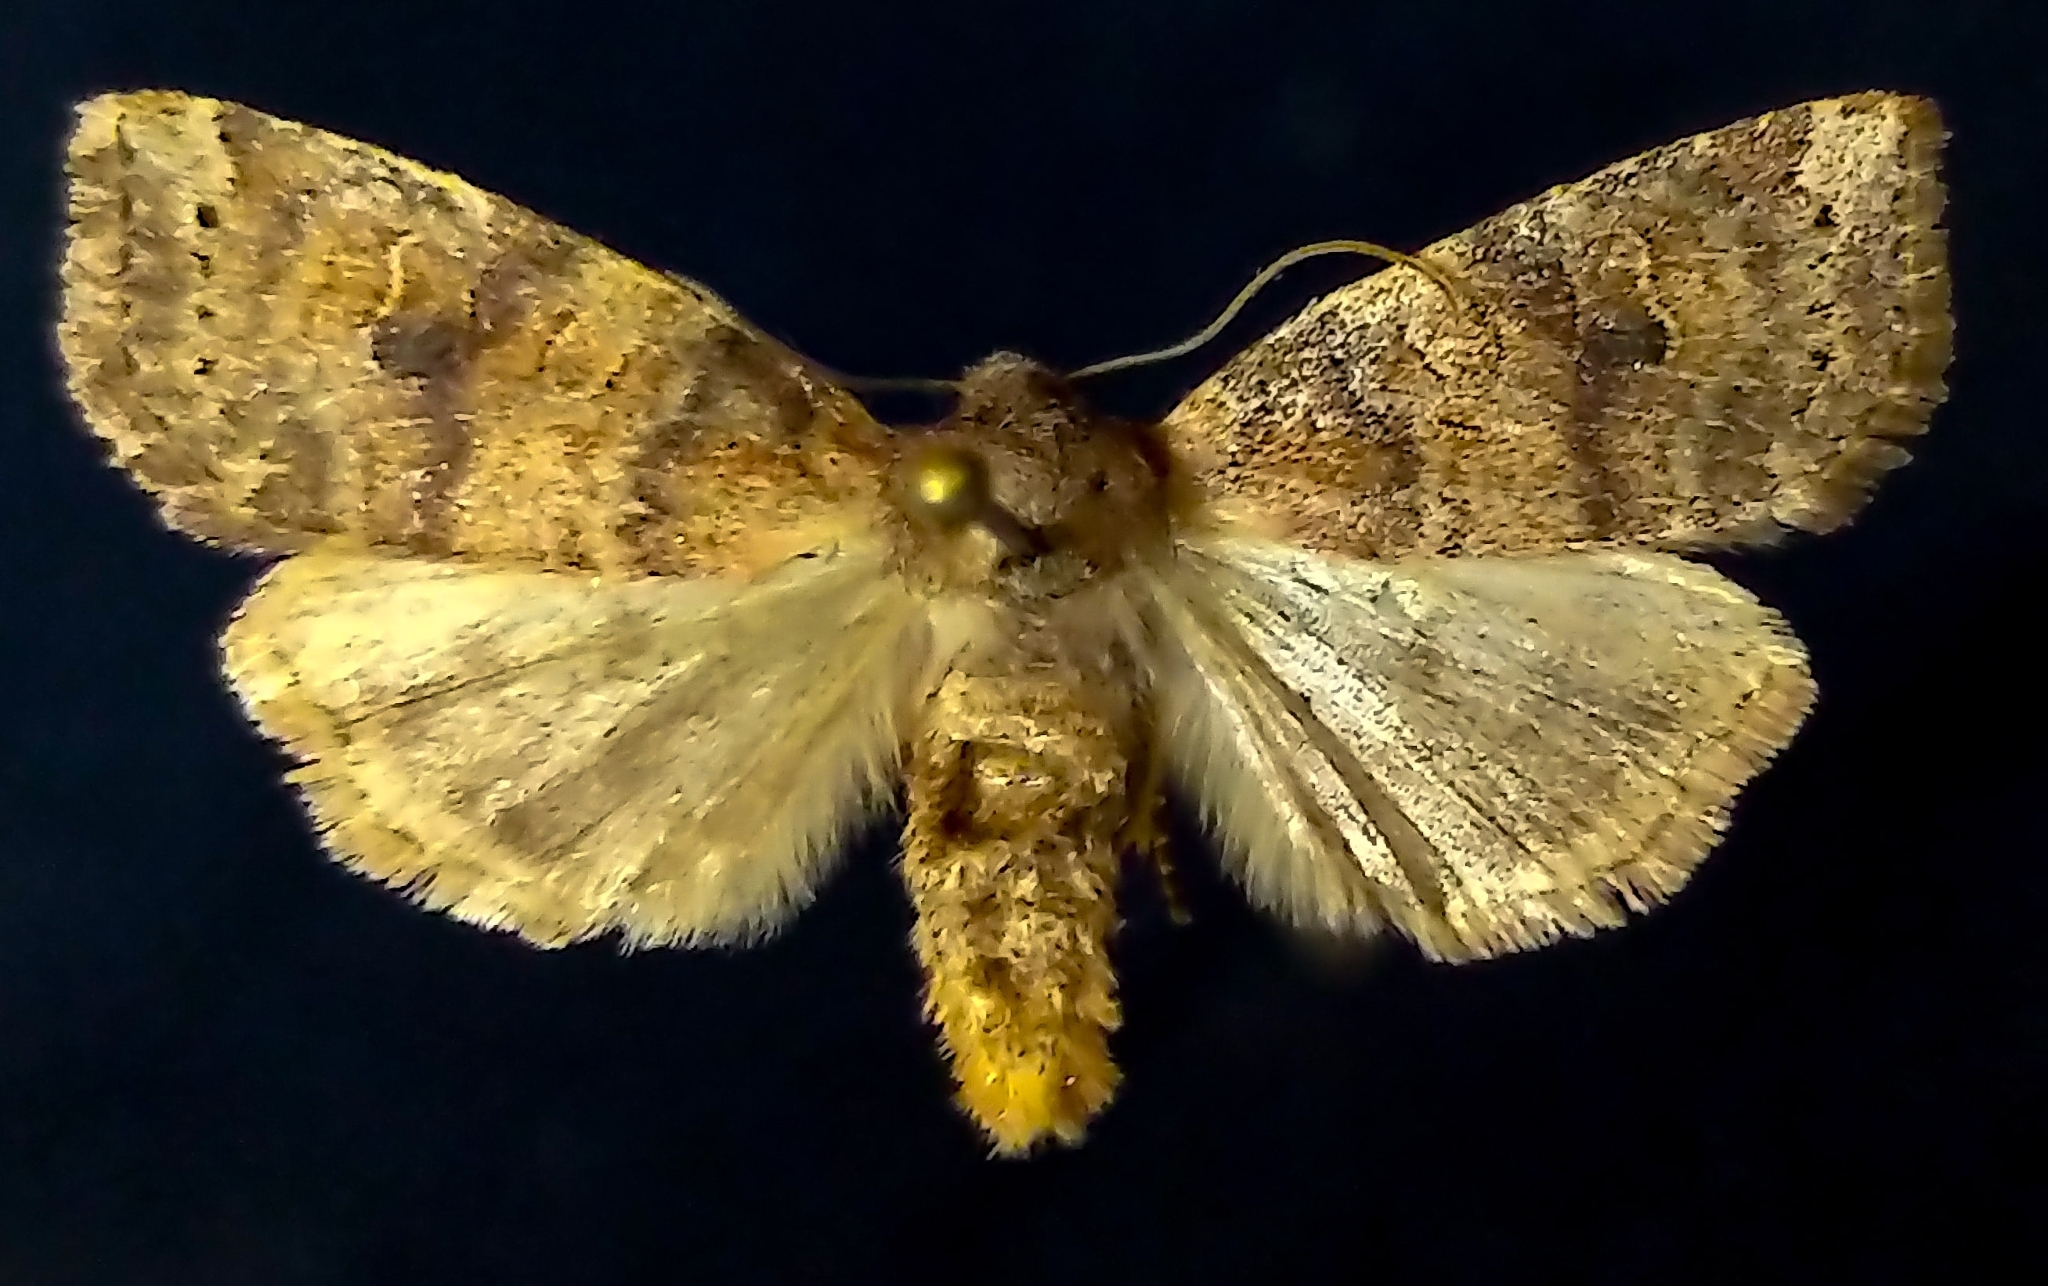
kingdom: Animalia
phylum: Arthropoda
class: Insecta
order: Lepidoptera
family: Noctuidae
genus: Anathix
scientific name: Anathix puta
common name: Puta sallow
